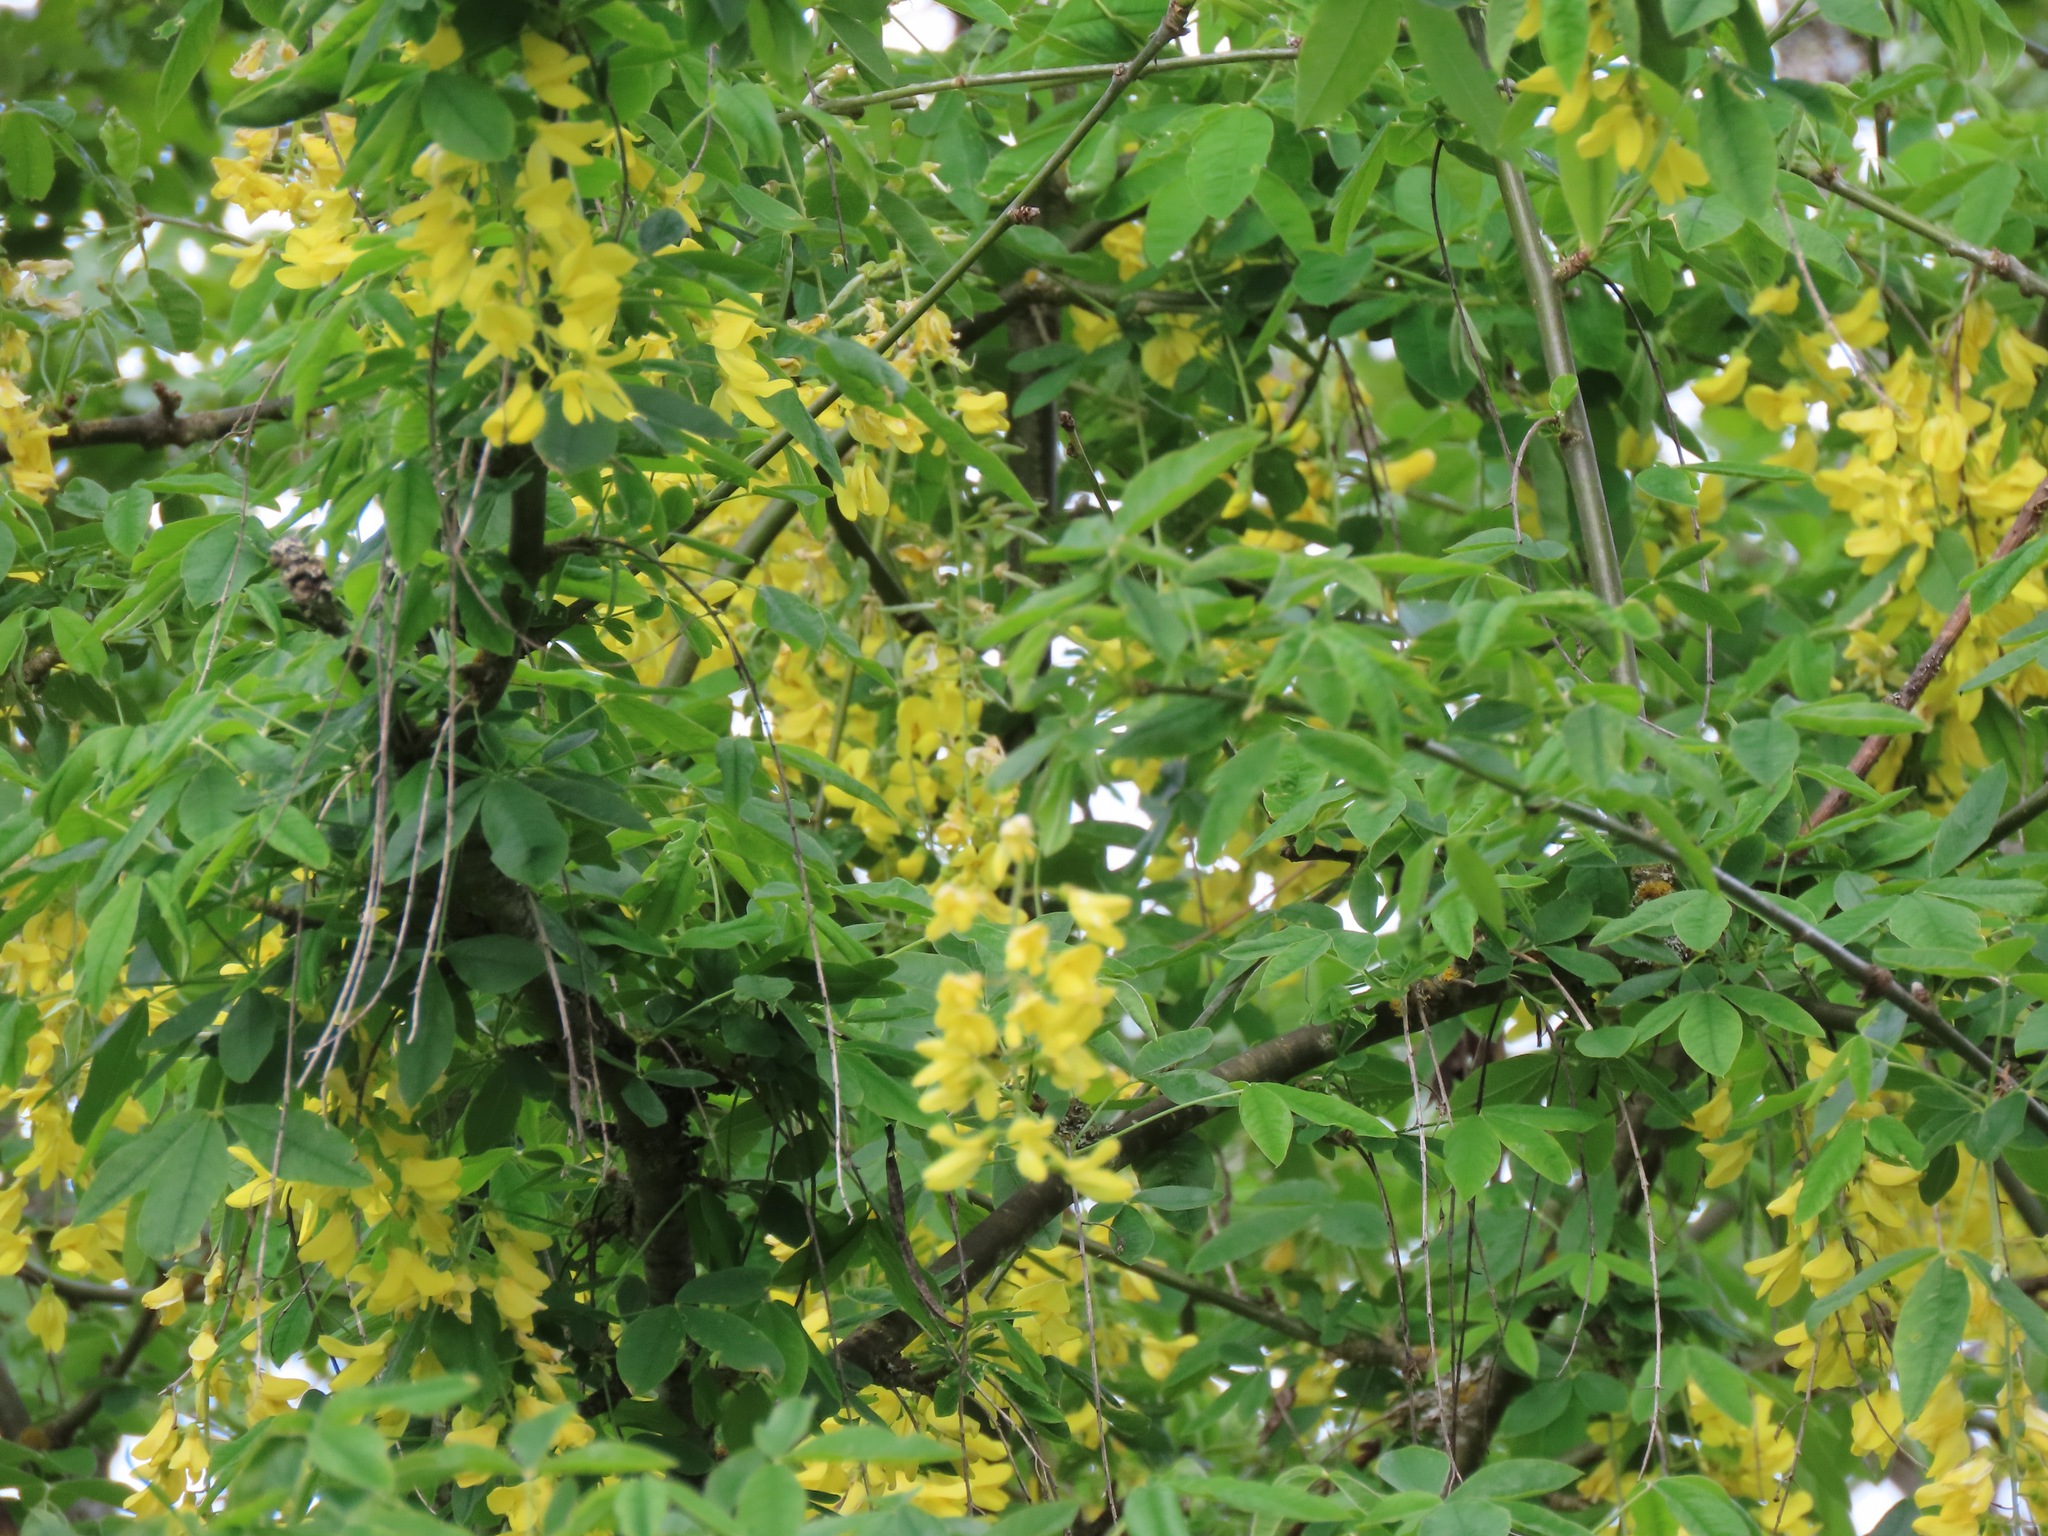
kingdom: Plantae
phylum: Tracheophyta
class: Magnoliopsida
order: Fabales
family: Fabaceae
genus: Laburnum
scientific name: Laburnum anagyroides
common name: Laburnum
